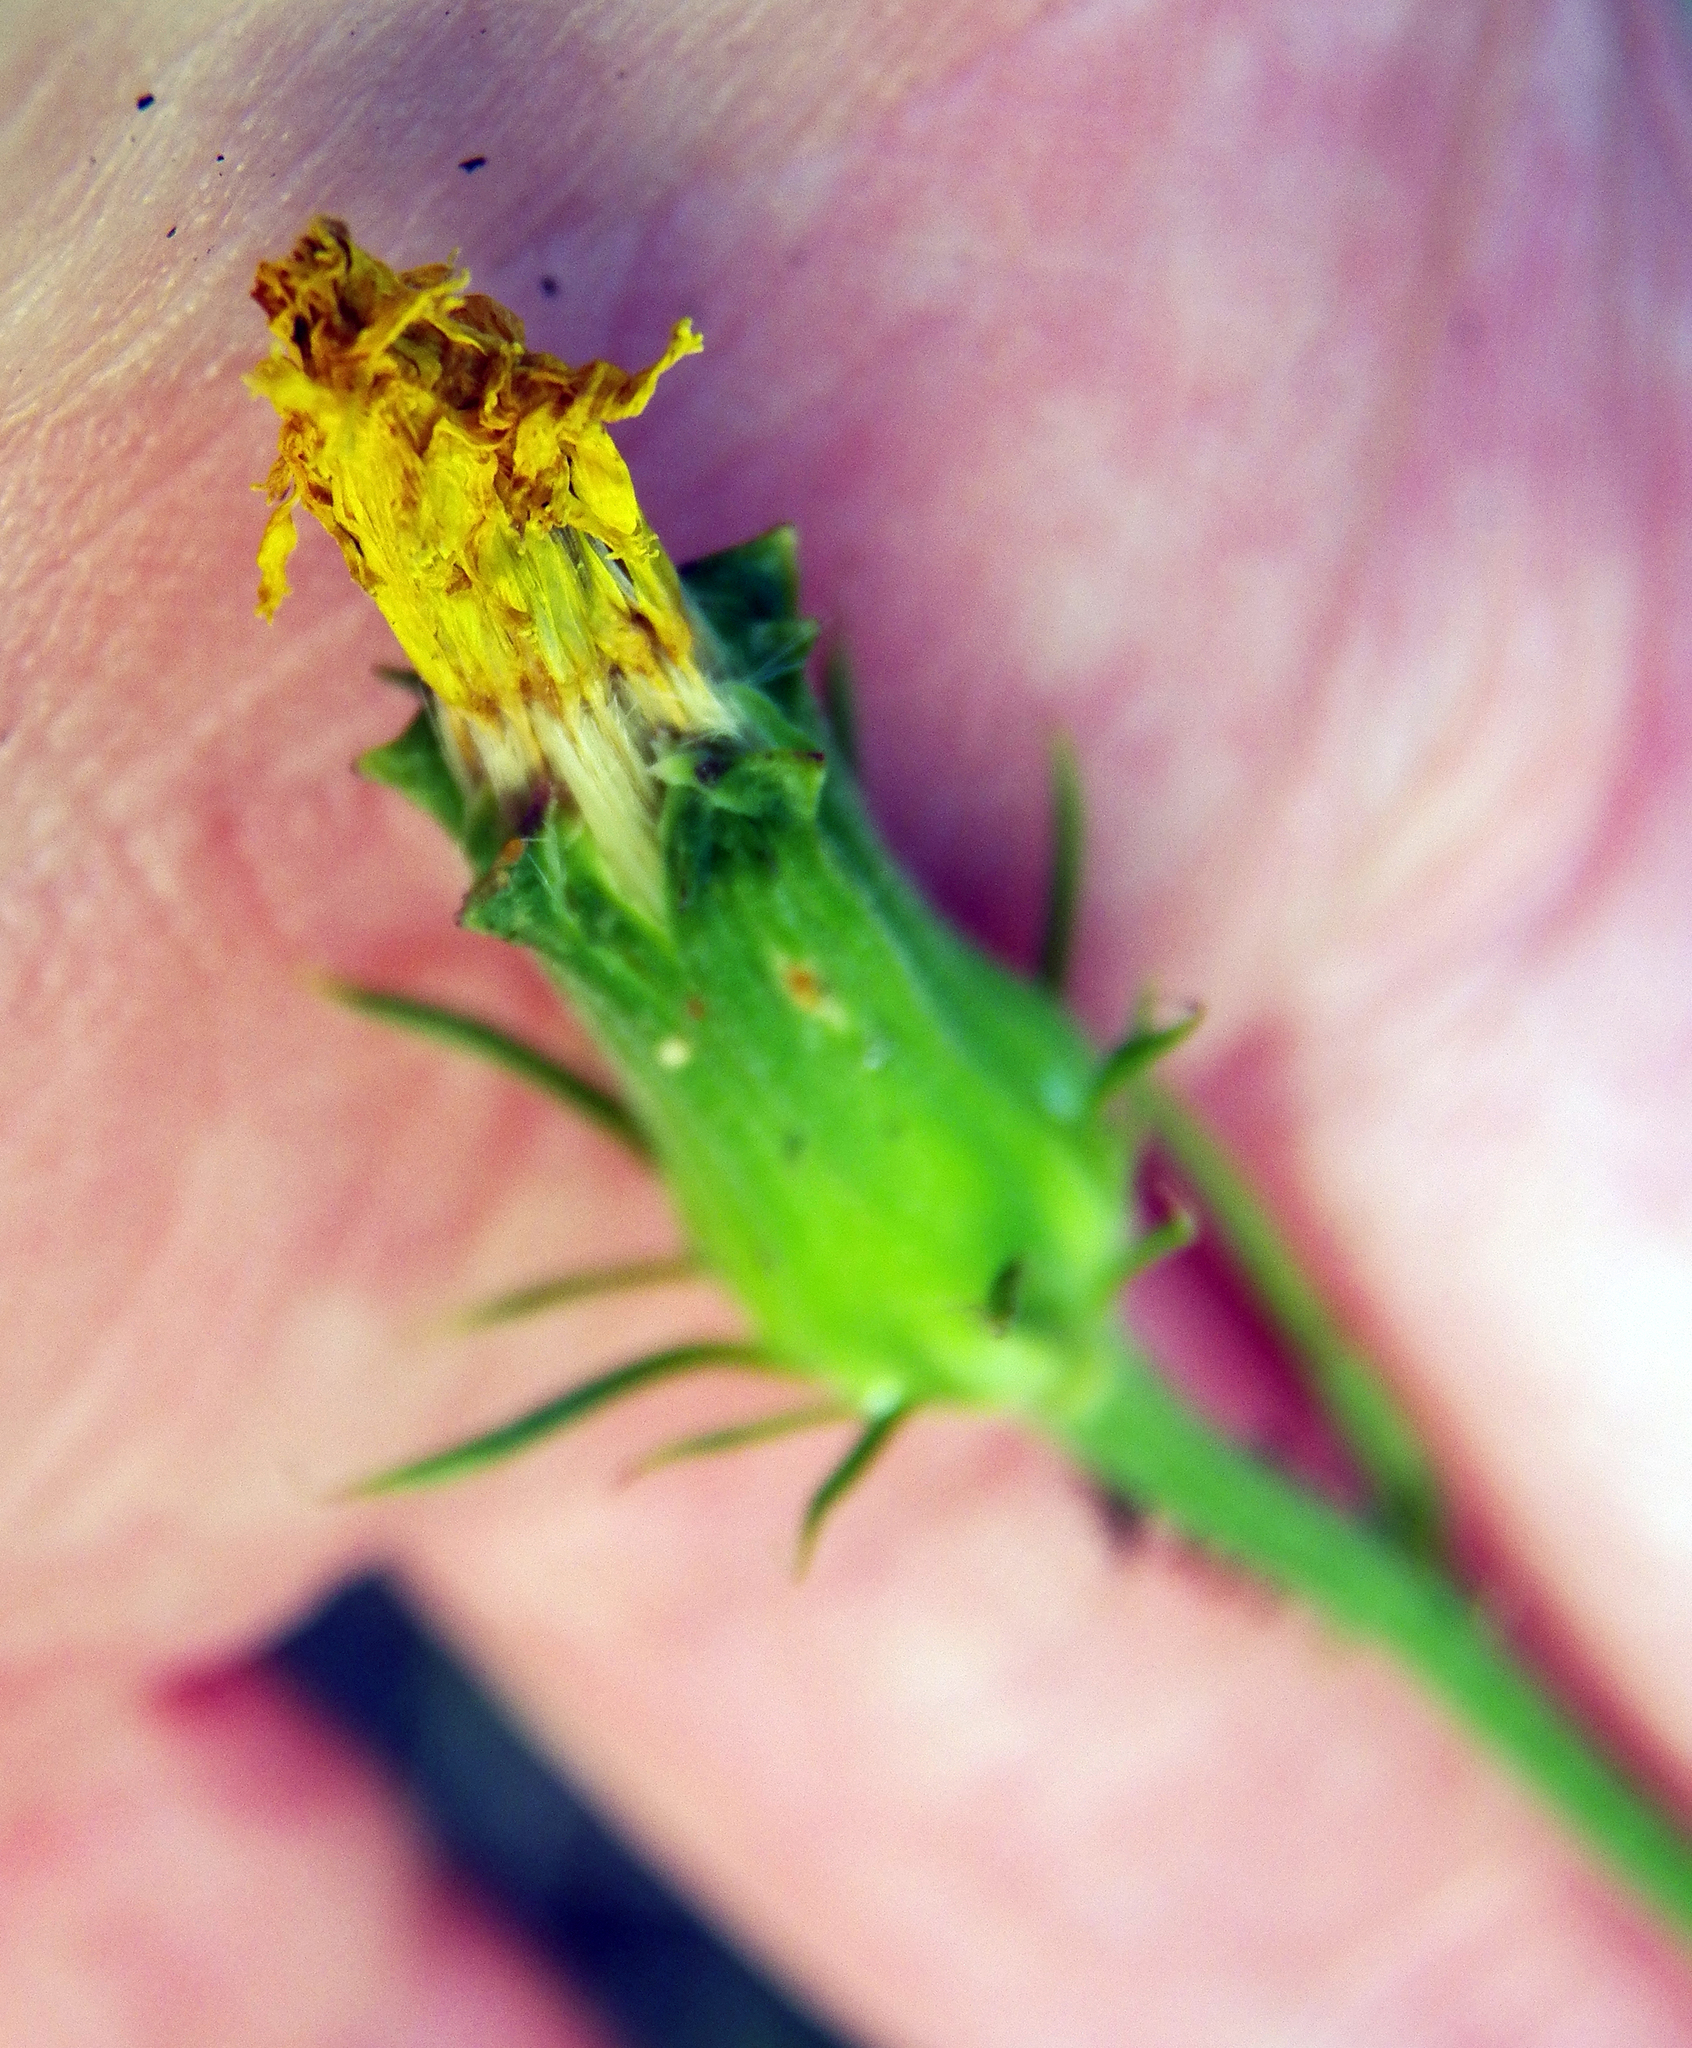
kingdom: Plantae
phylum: Tracheophyta
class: Magnoliopsida
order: Asterales
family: Asteraceae
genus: Pyrrhopappus
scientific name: Pyrrhopappus carolinianus
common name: Carolina desert-chicory
